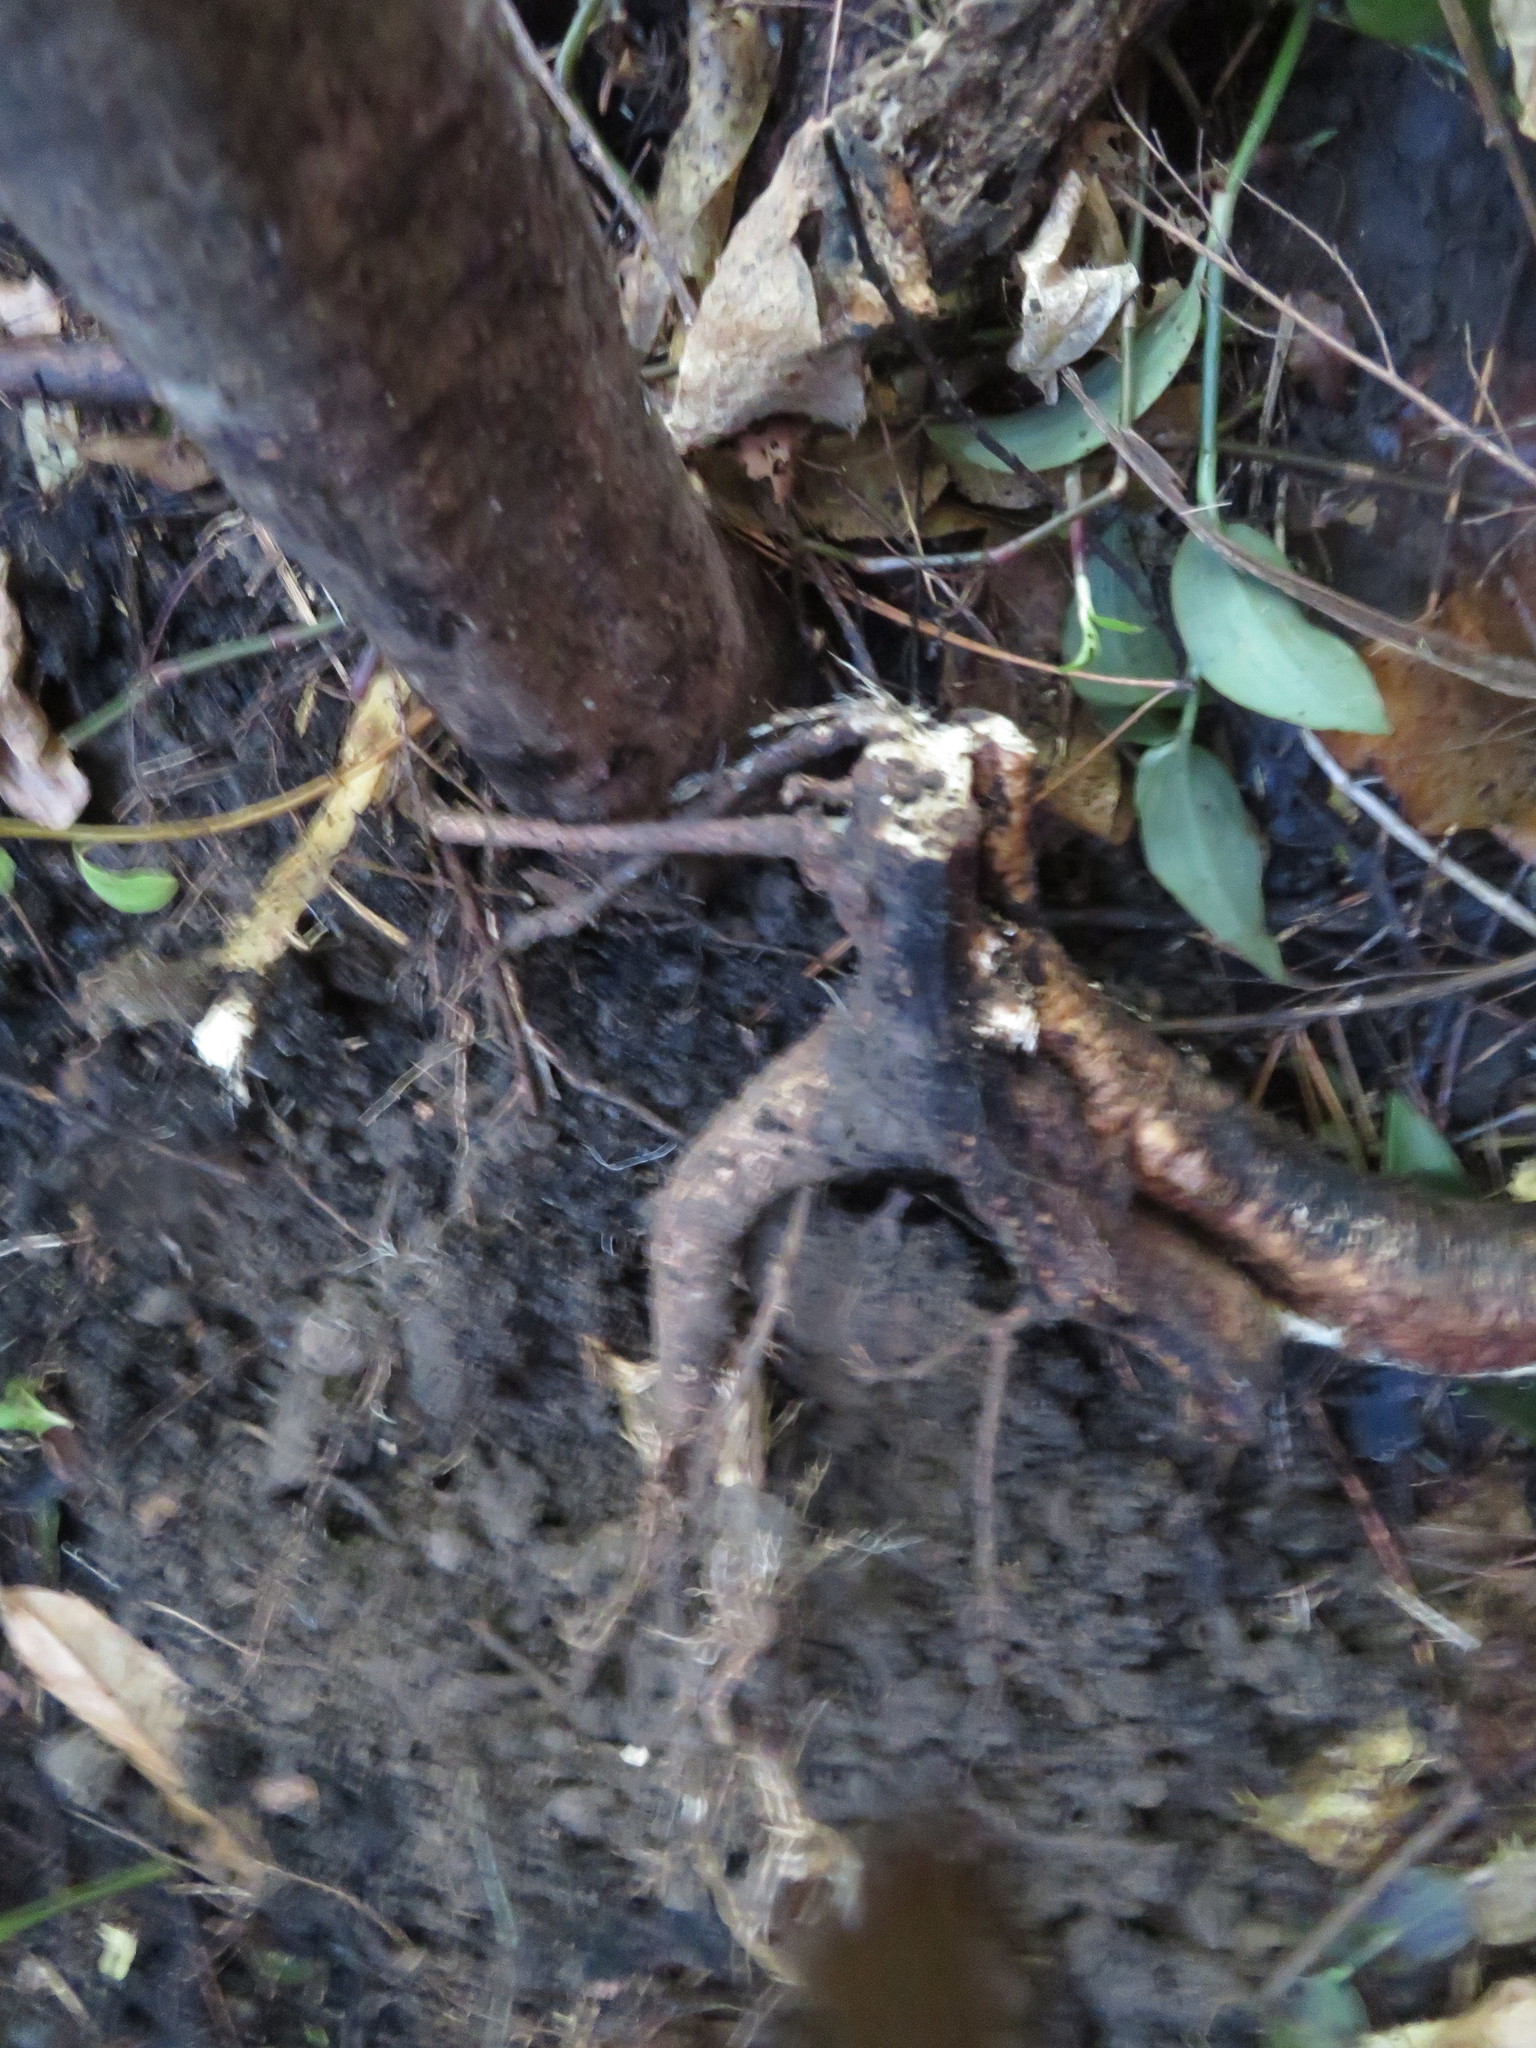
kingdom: Plantae
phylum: Tracheophyta
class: Magnoliopsida
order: Fabales
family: Fabaceae
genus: Erythrina
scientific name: Erythrina sykesii
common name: Coraltree
